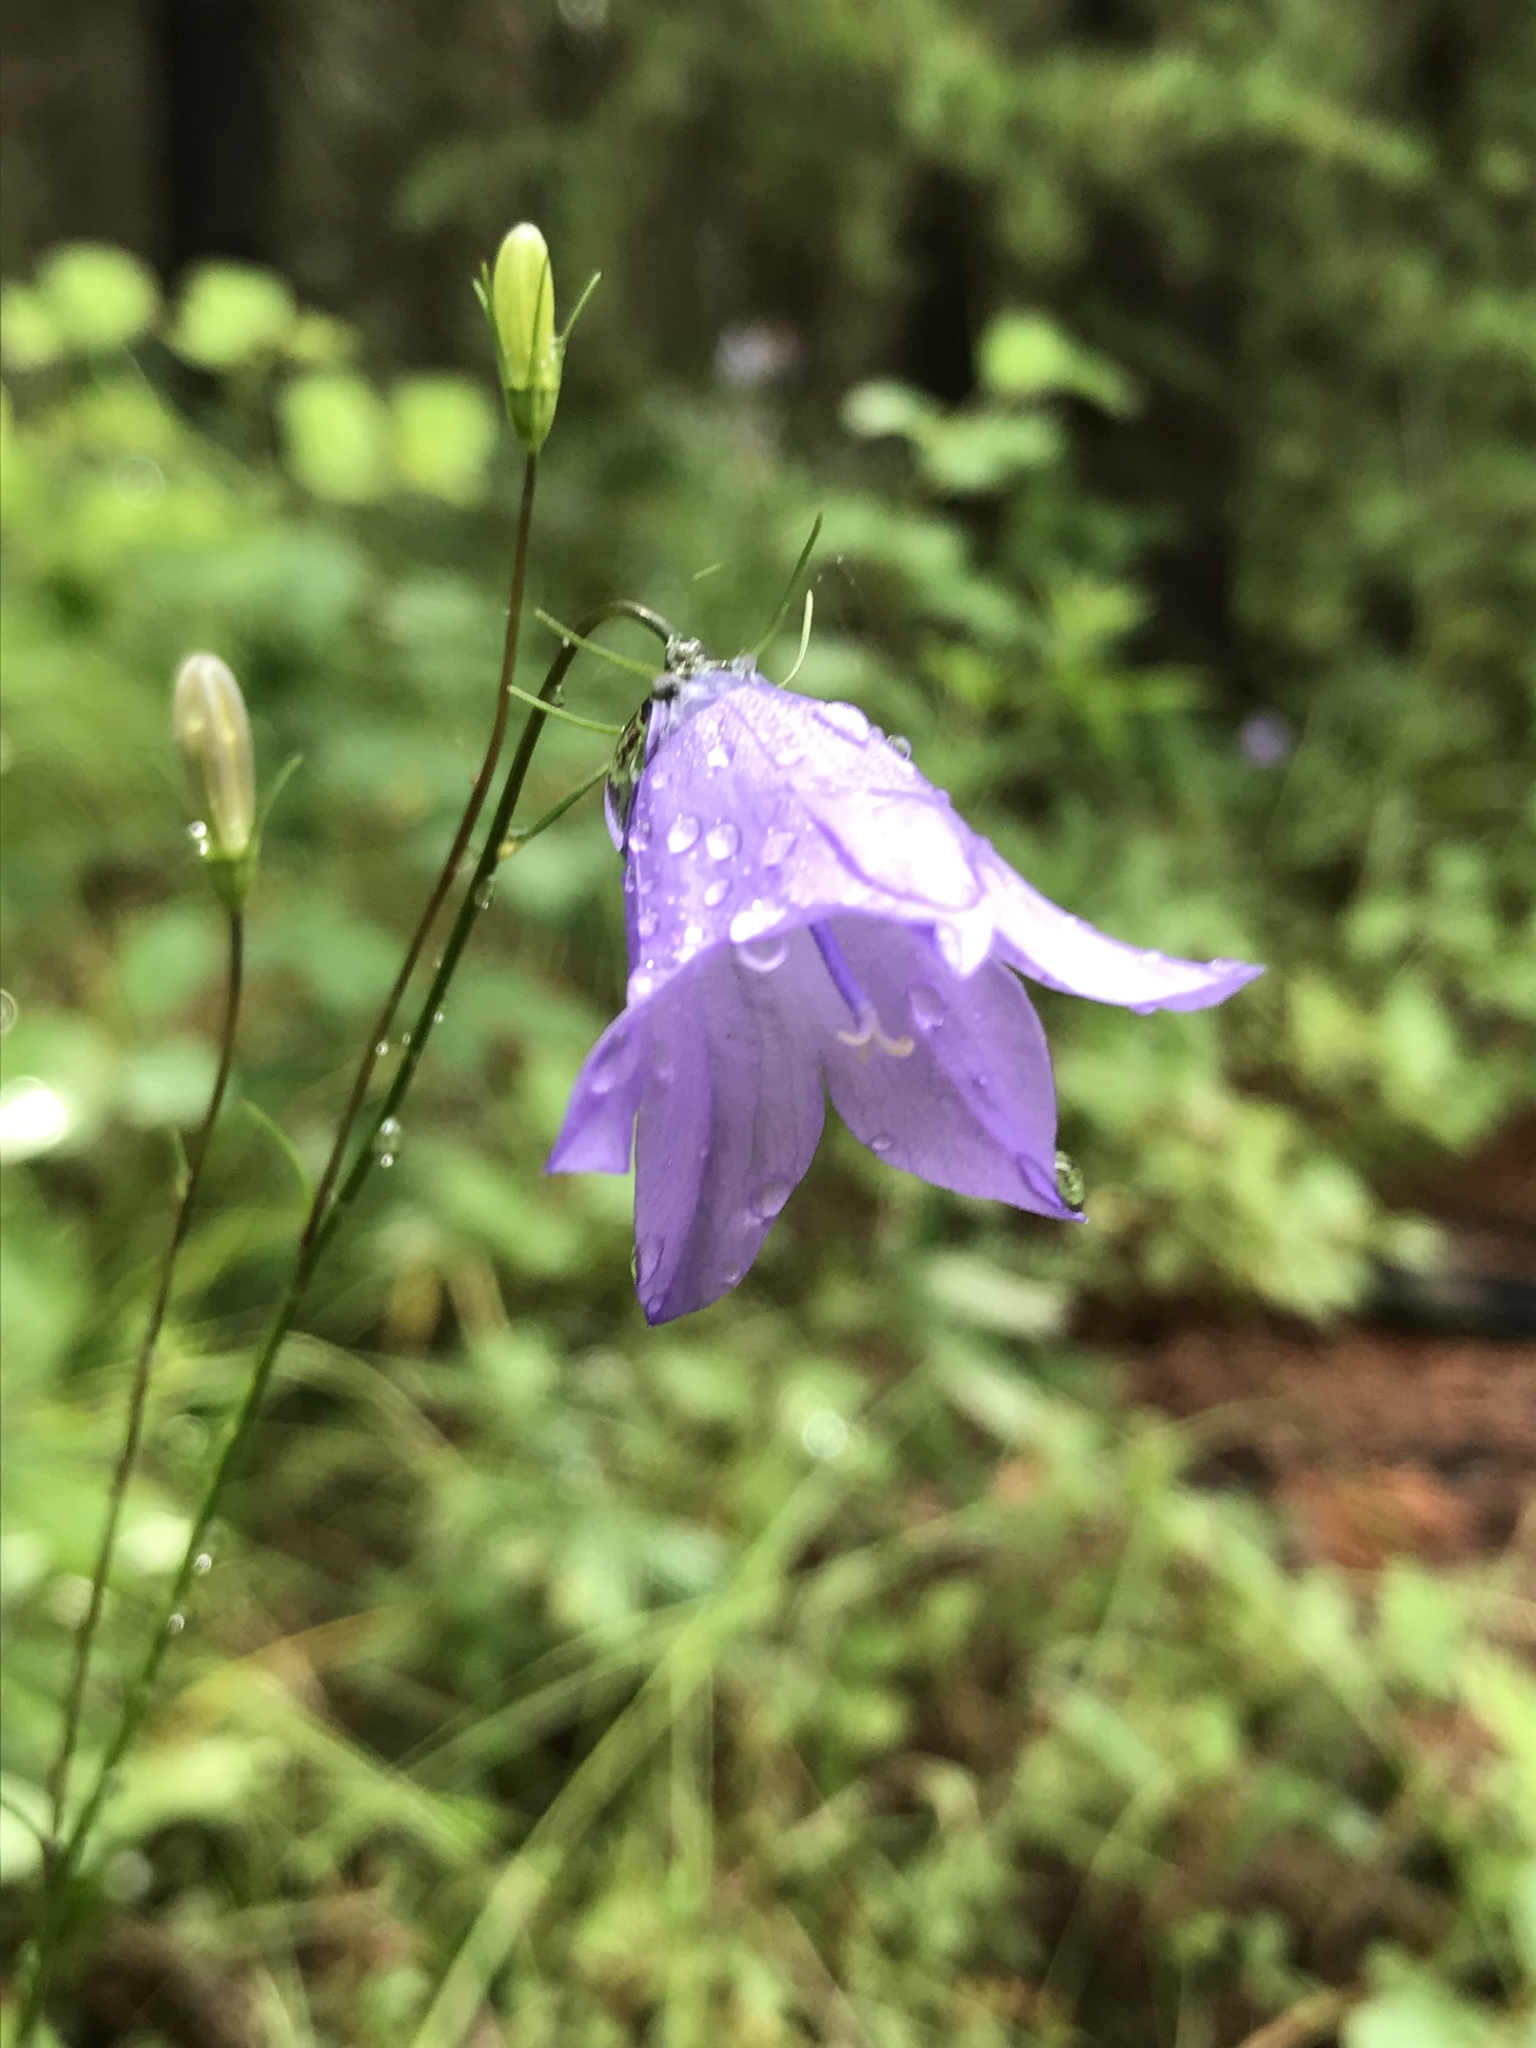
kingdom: Plantae
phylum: Tracheophyta
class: Magnoliopsida
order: Asterales
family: Campanulaceae
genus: Campanula
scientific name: Campanula petiolata
